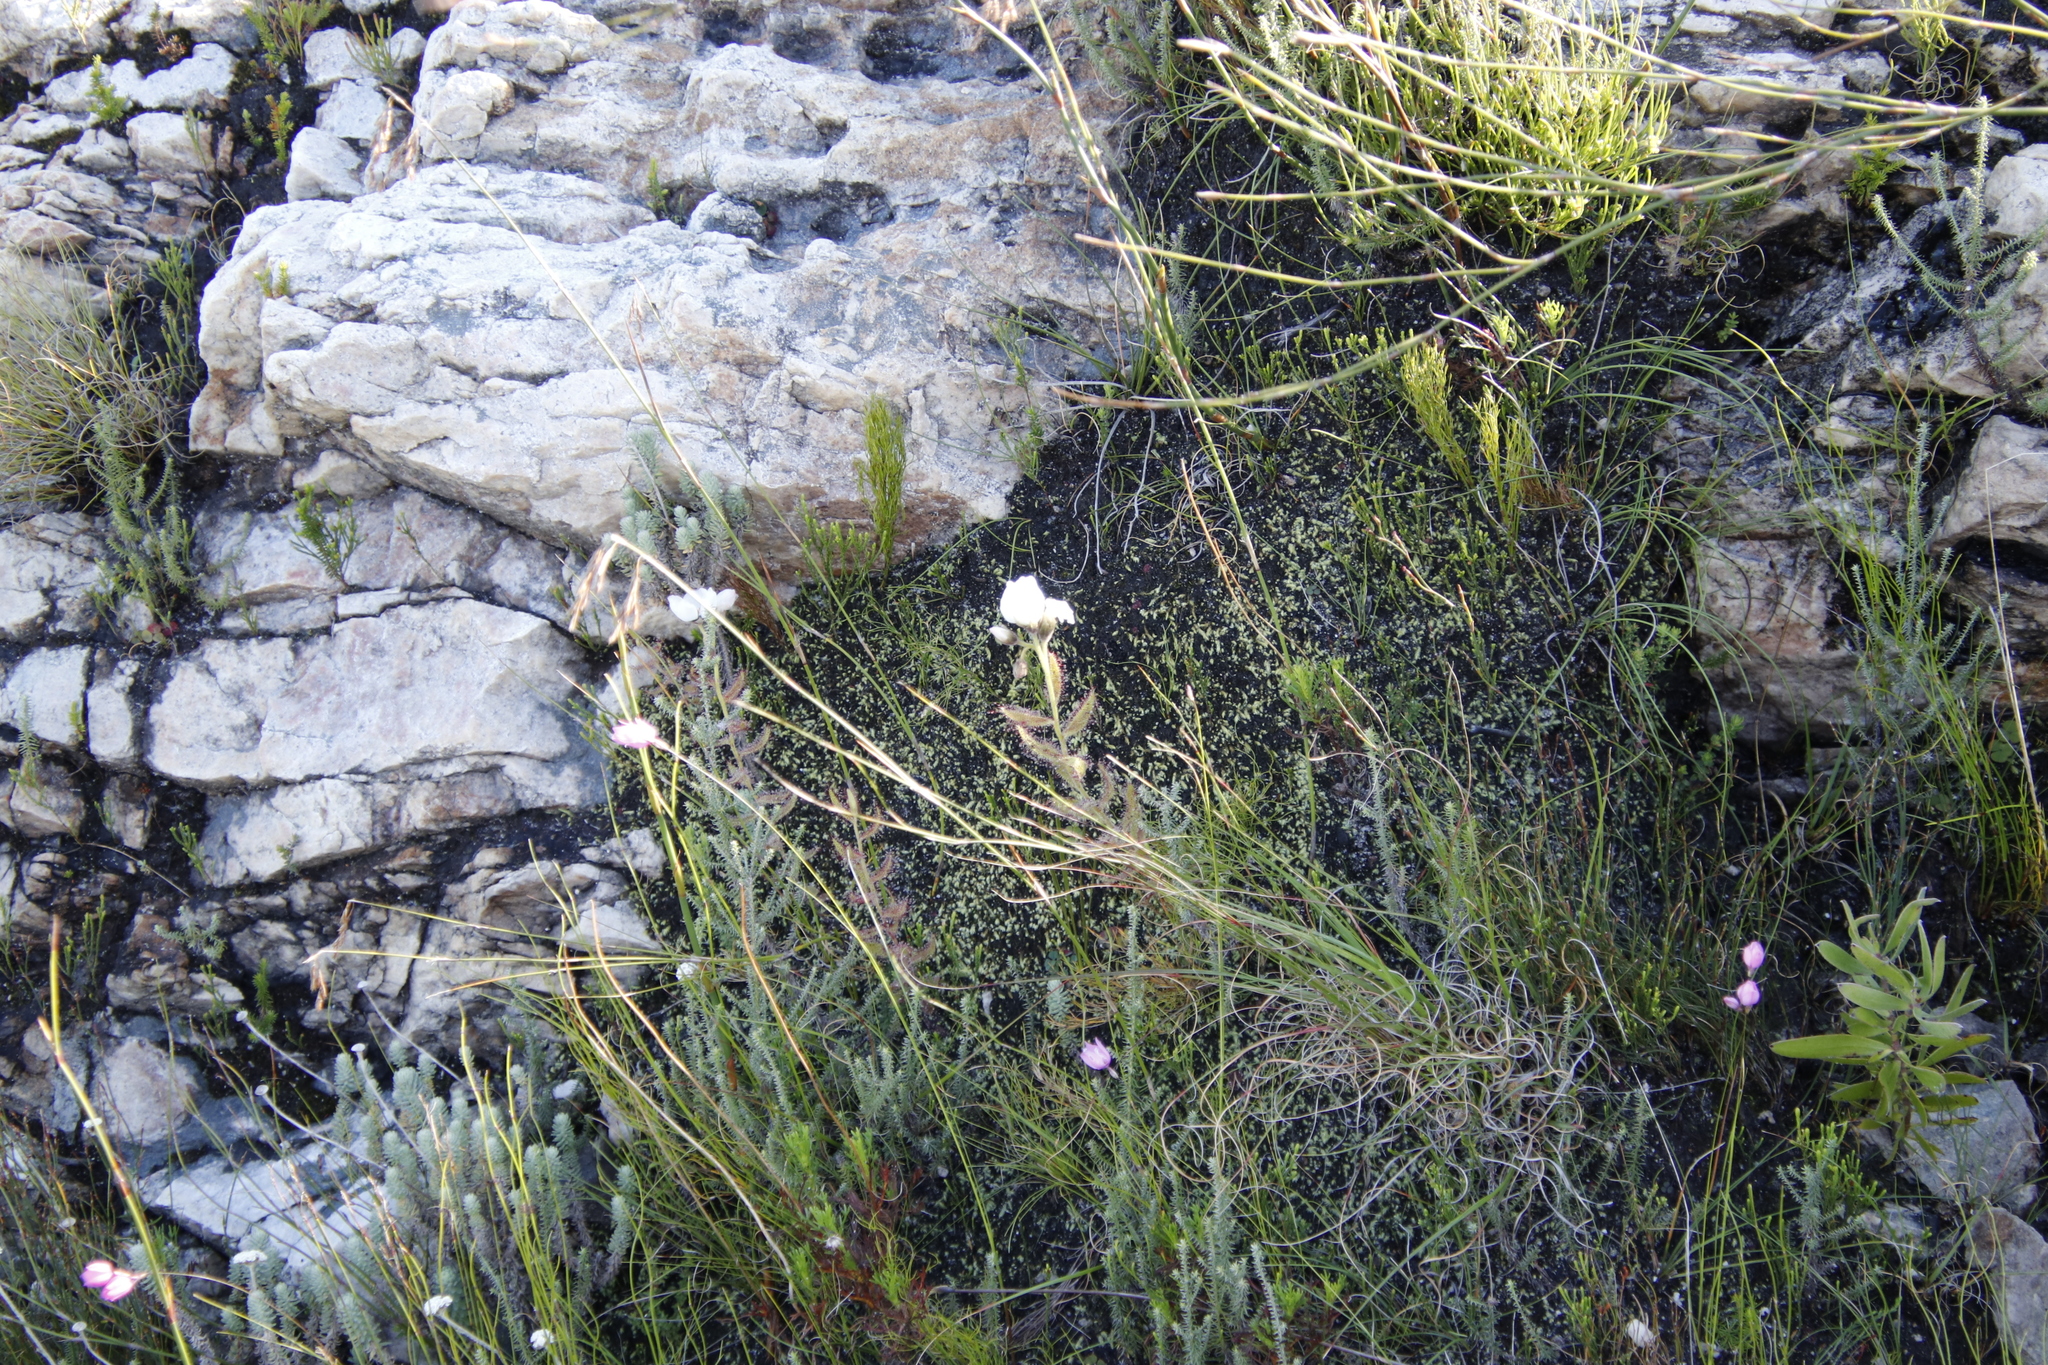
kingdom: Plantae
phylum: Tracheophyta
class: Magnoliopsida
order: Caryophyllales
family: Droseraceae
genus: Drosera
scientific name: Drosera cistiflora
